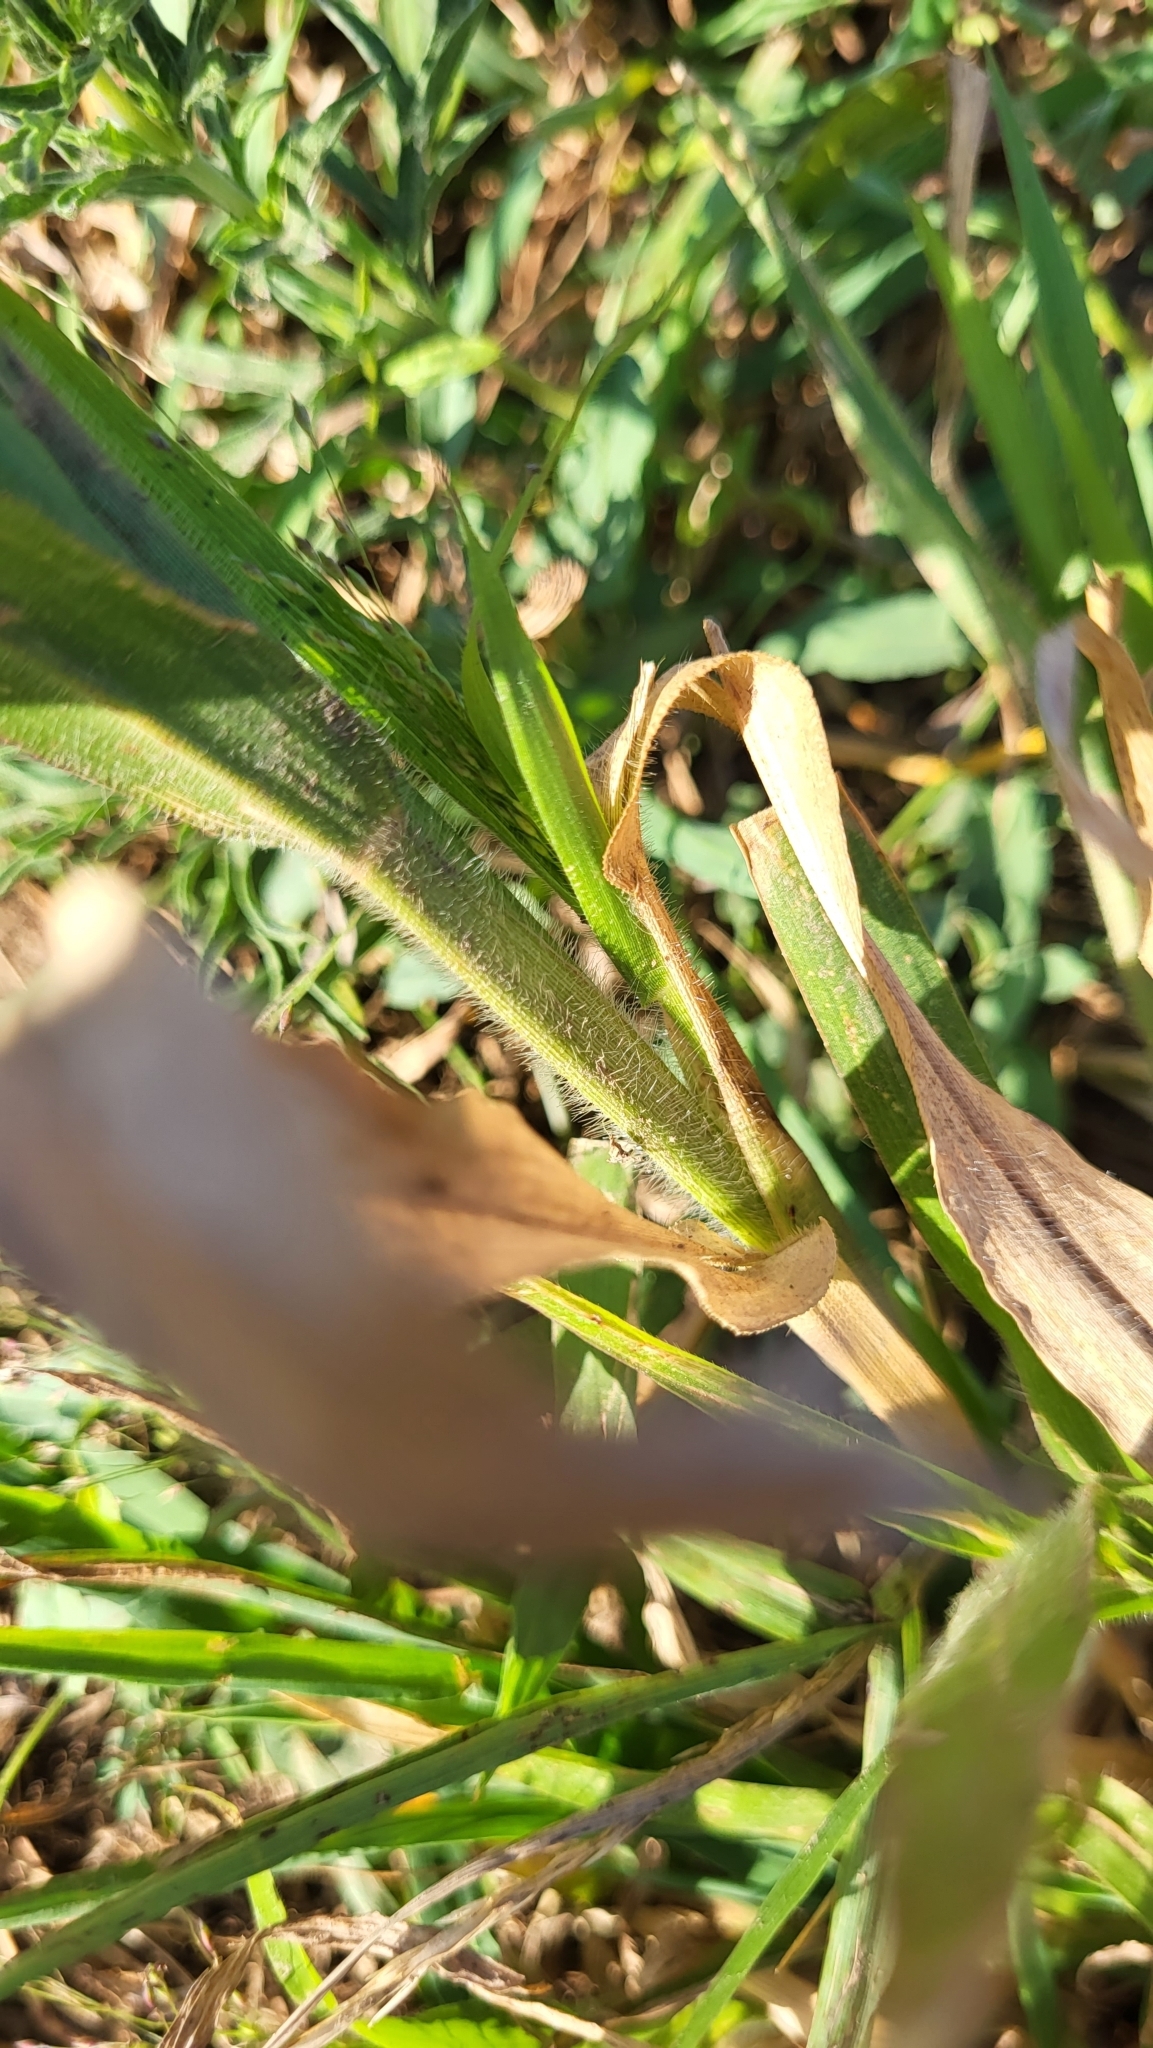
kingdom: Plantae
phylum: Tracheophyta
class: Liliopsida
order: Poales
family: Poaceae
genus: Panicum
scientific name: Panicum capillare
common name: Witch-grass
